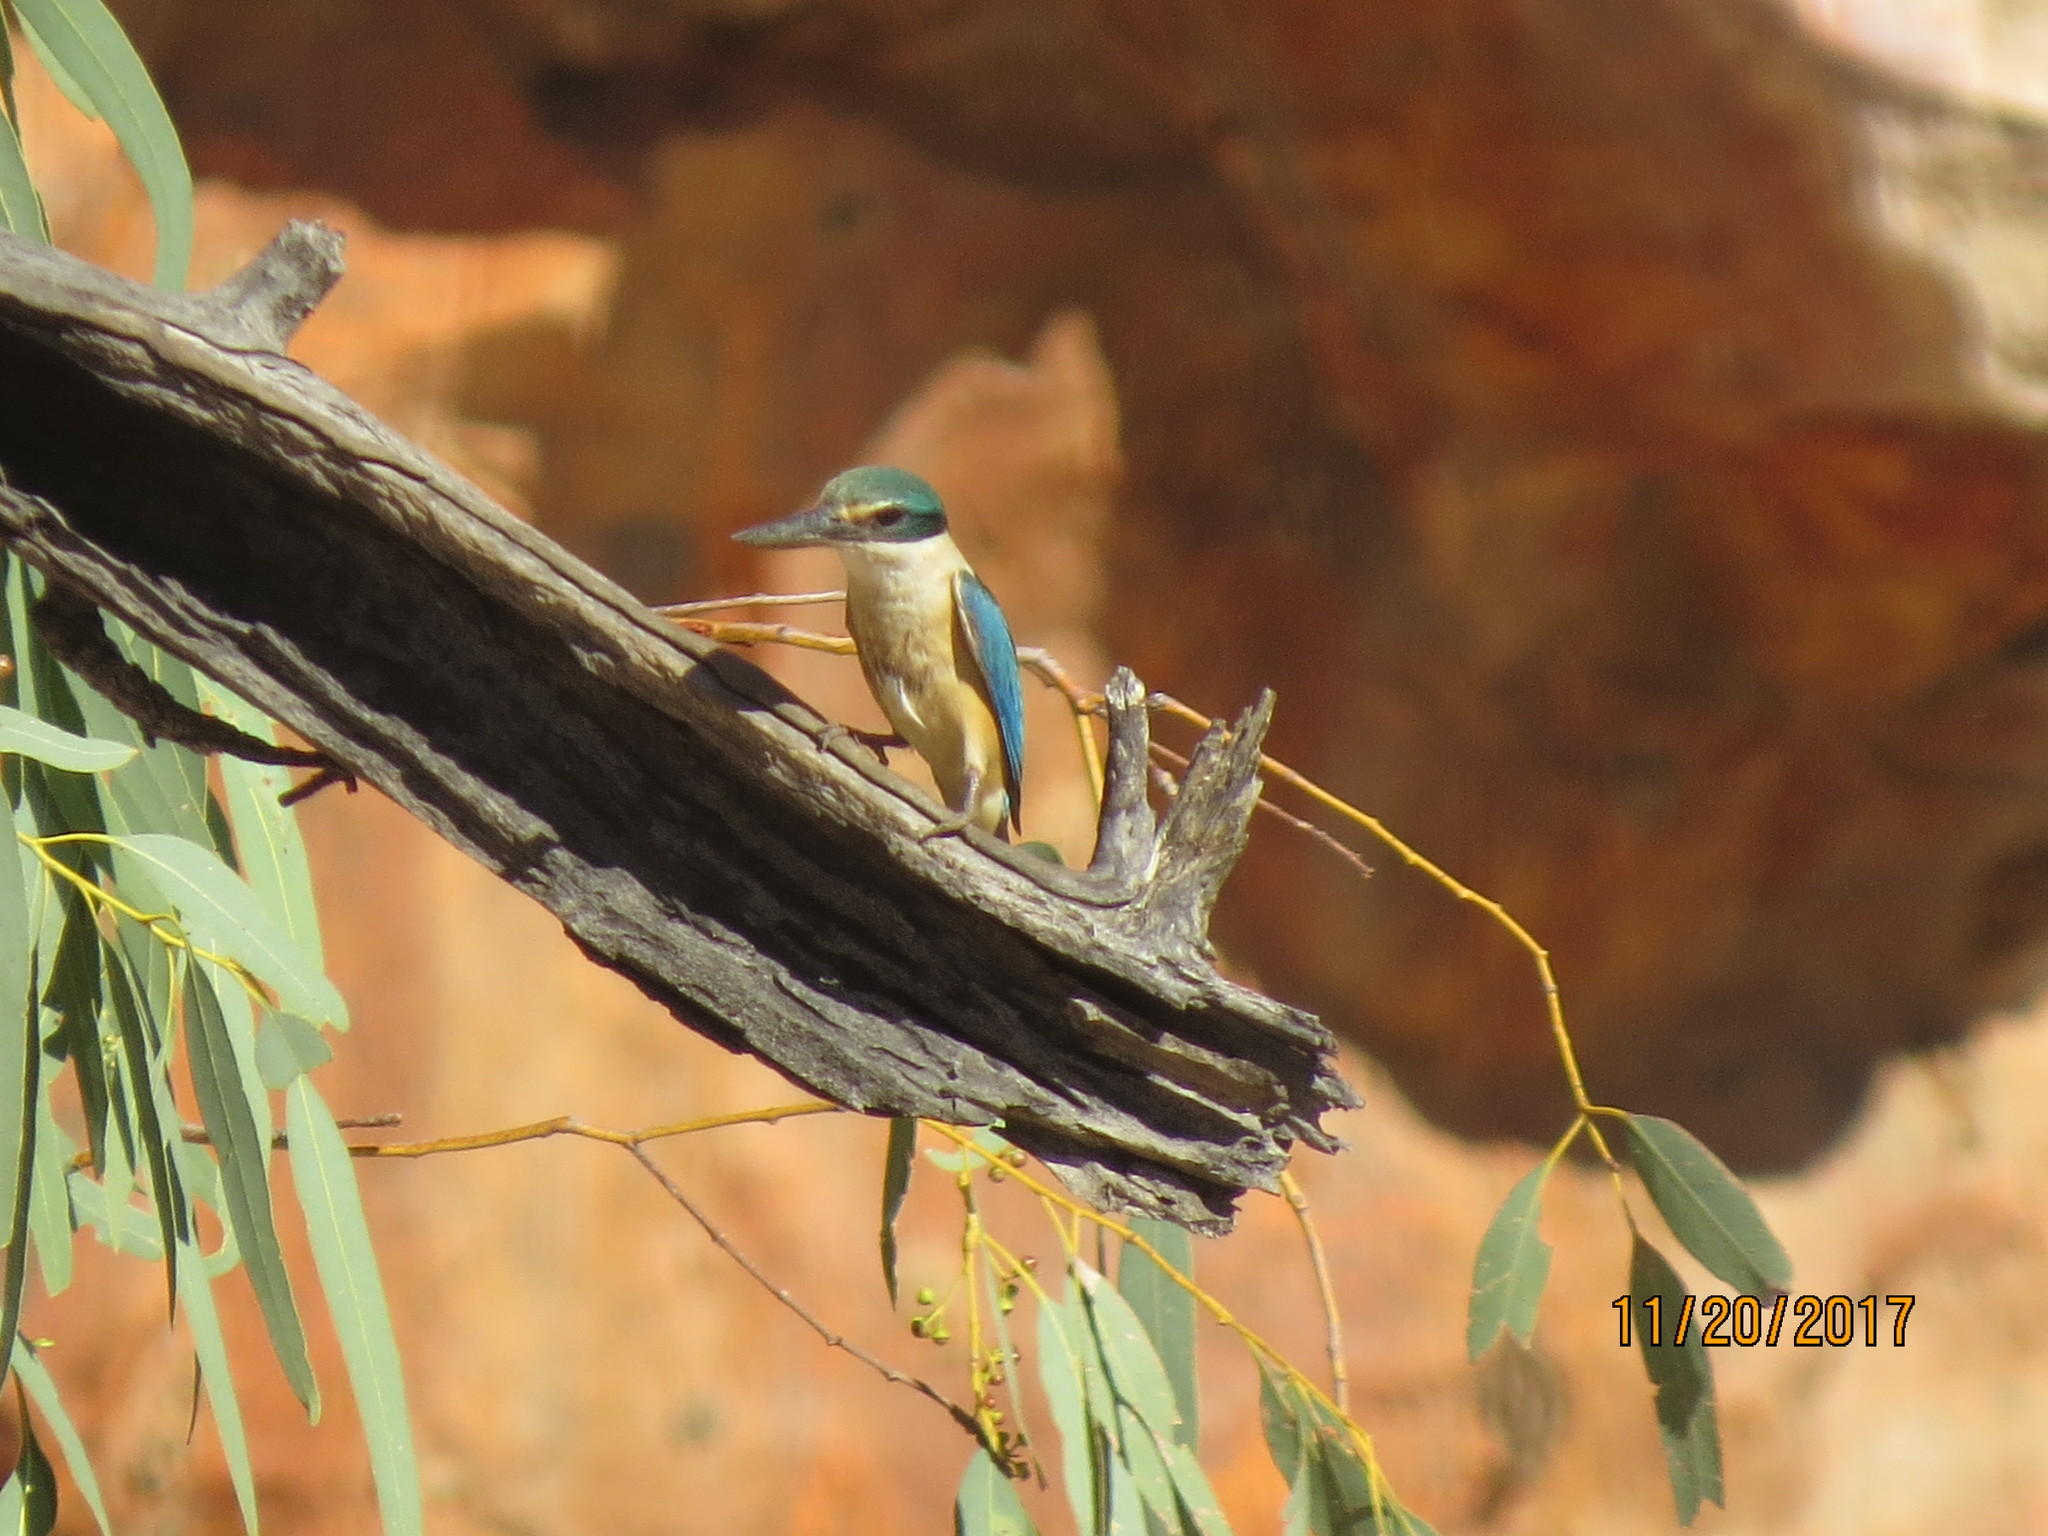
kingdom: Animalia
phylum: Chordata
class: Aves
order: Coraciiformes
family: Alcedinidae
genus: Todiramphus
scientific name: Todiramphus sanctus
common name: Sacred kingfisher
